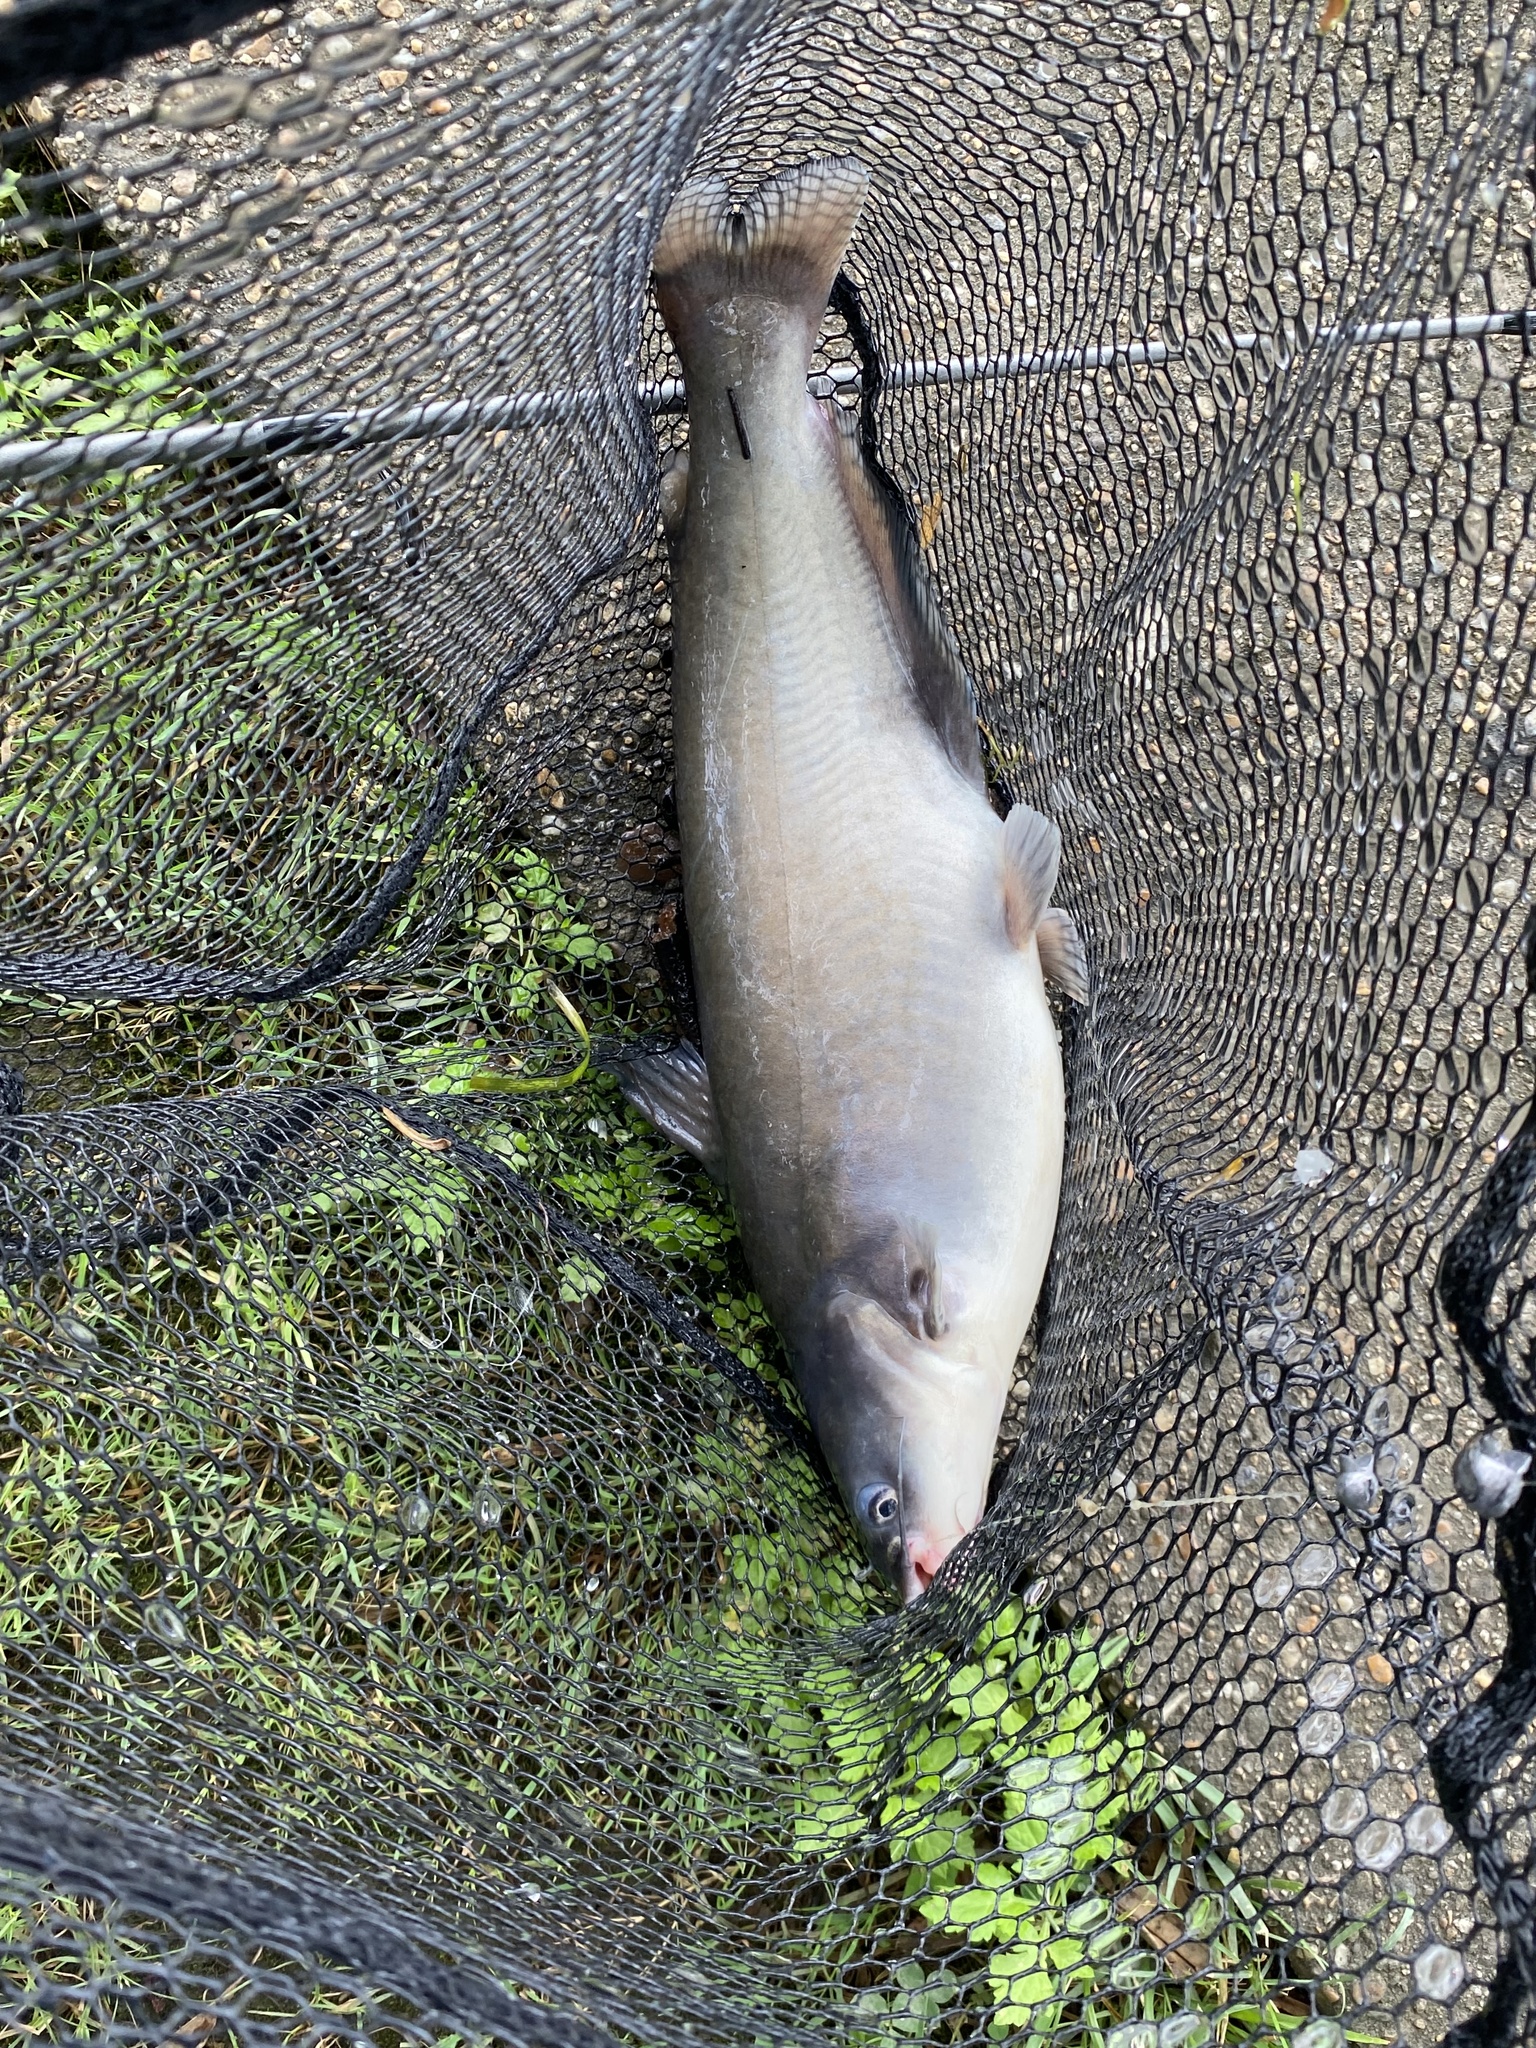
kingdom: Animalia
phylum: Chordata
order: Siluriformes
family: Ictaluridae
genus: Ictalurus
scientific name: Ictalurus furcatus
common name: Blue catfish
